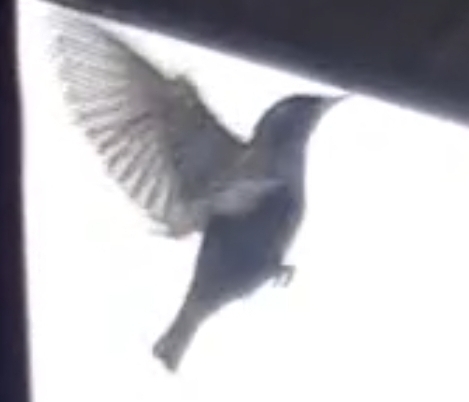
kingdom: Animalia
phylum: Chordata
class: Aves
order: Passeriformes
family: Sturnidae
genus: Sturnus
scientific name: Sturnus vulgaris
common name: Common starling
